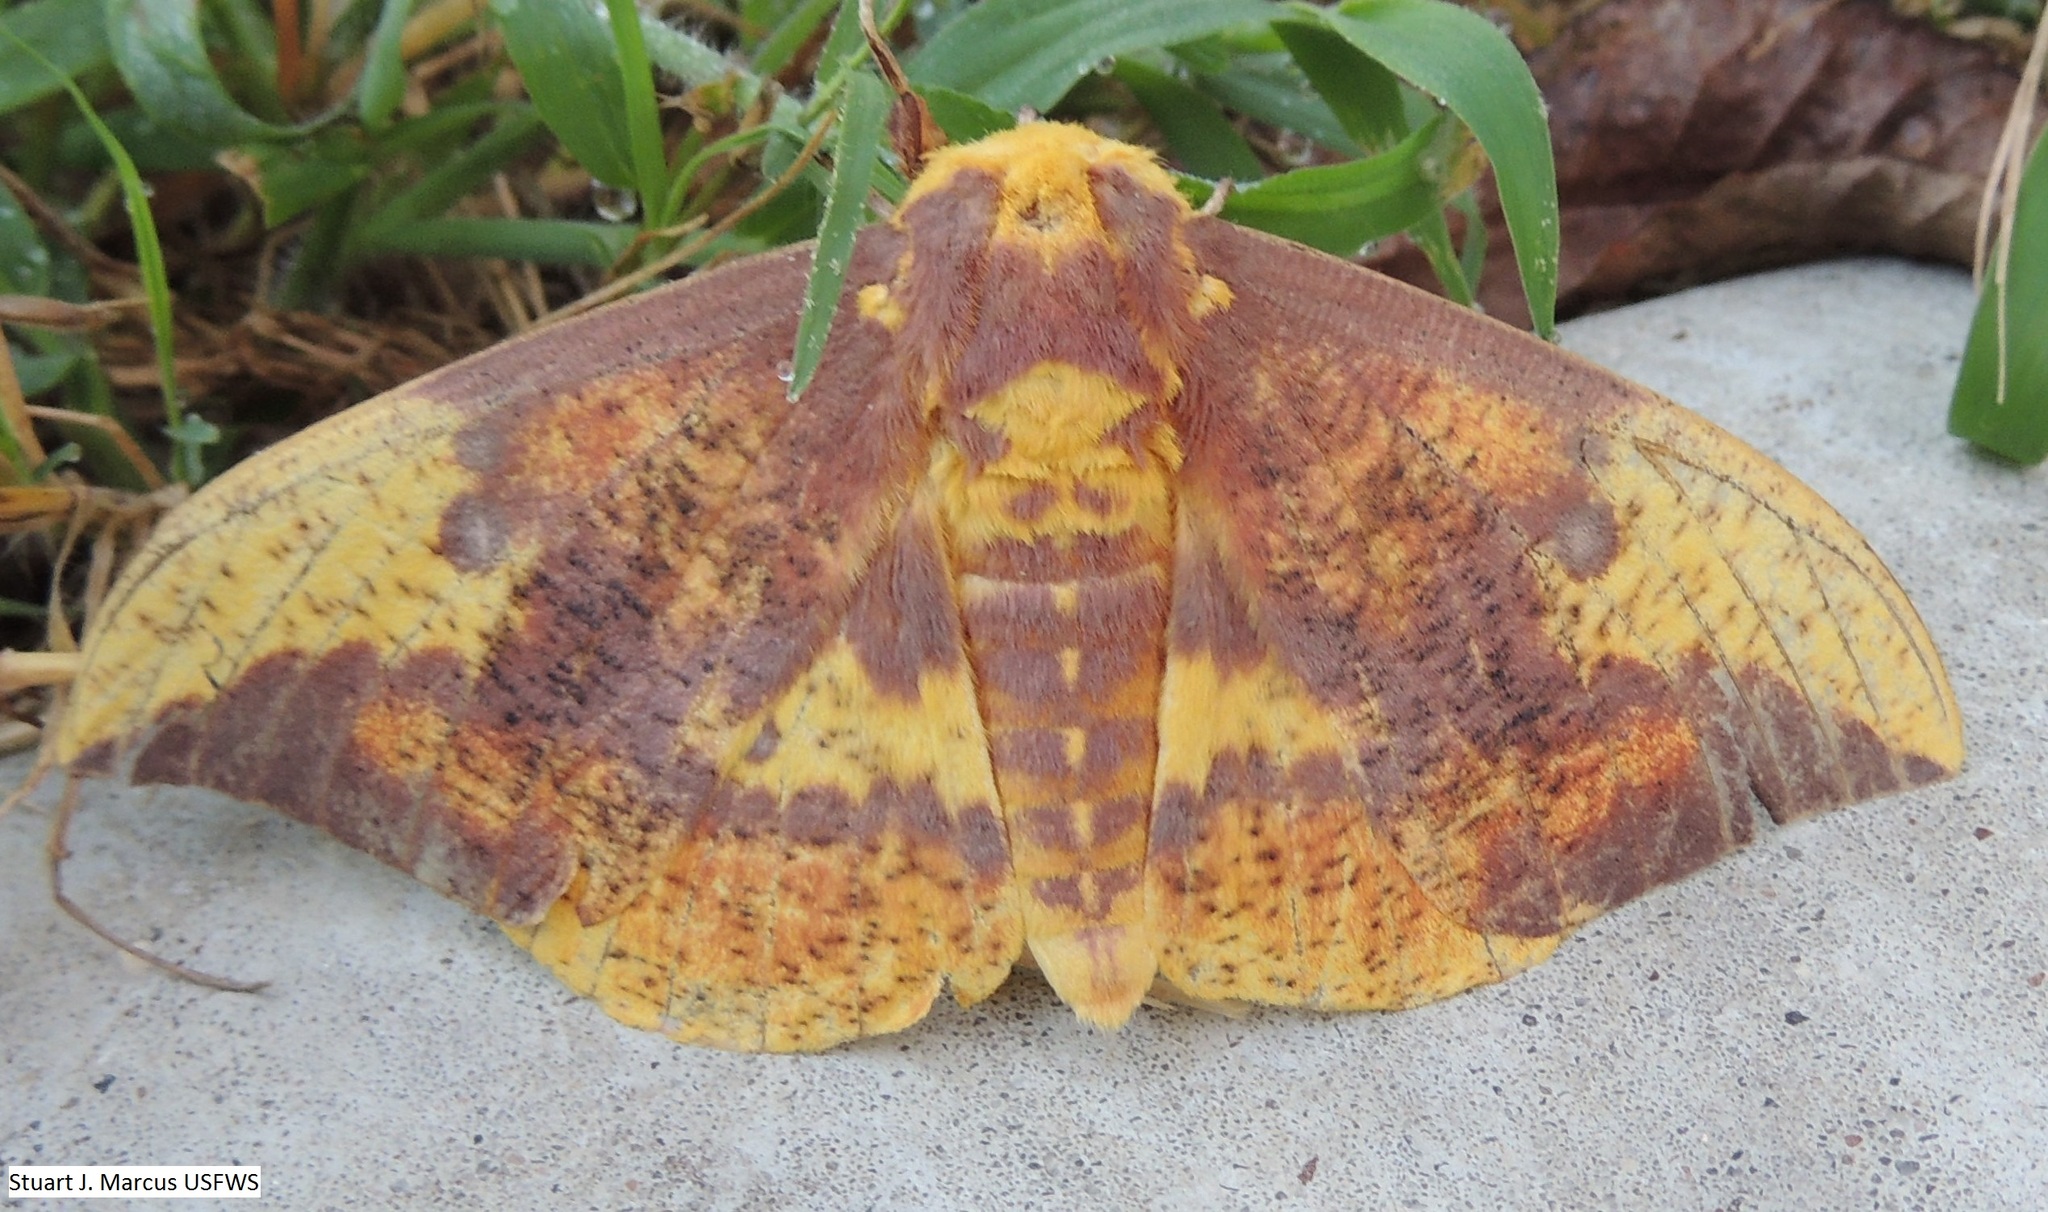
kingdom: Animalia
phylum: Arthropoda
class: Insecta
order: Lepidoptera
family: Saturniidae
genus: Eacles
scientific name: Eacles imperialis
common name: Imperial moth
